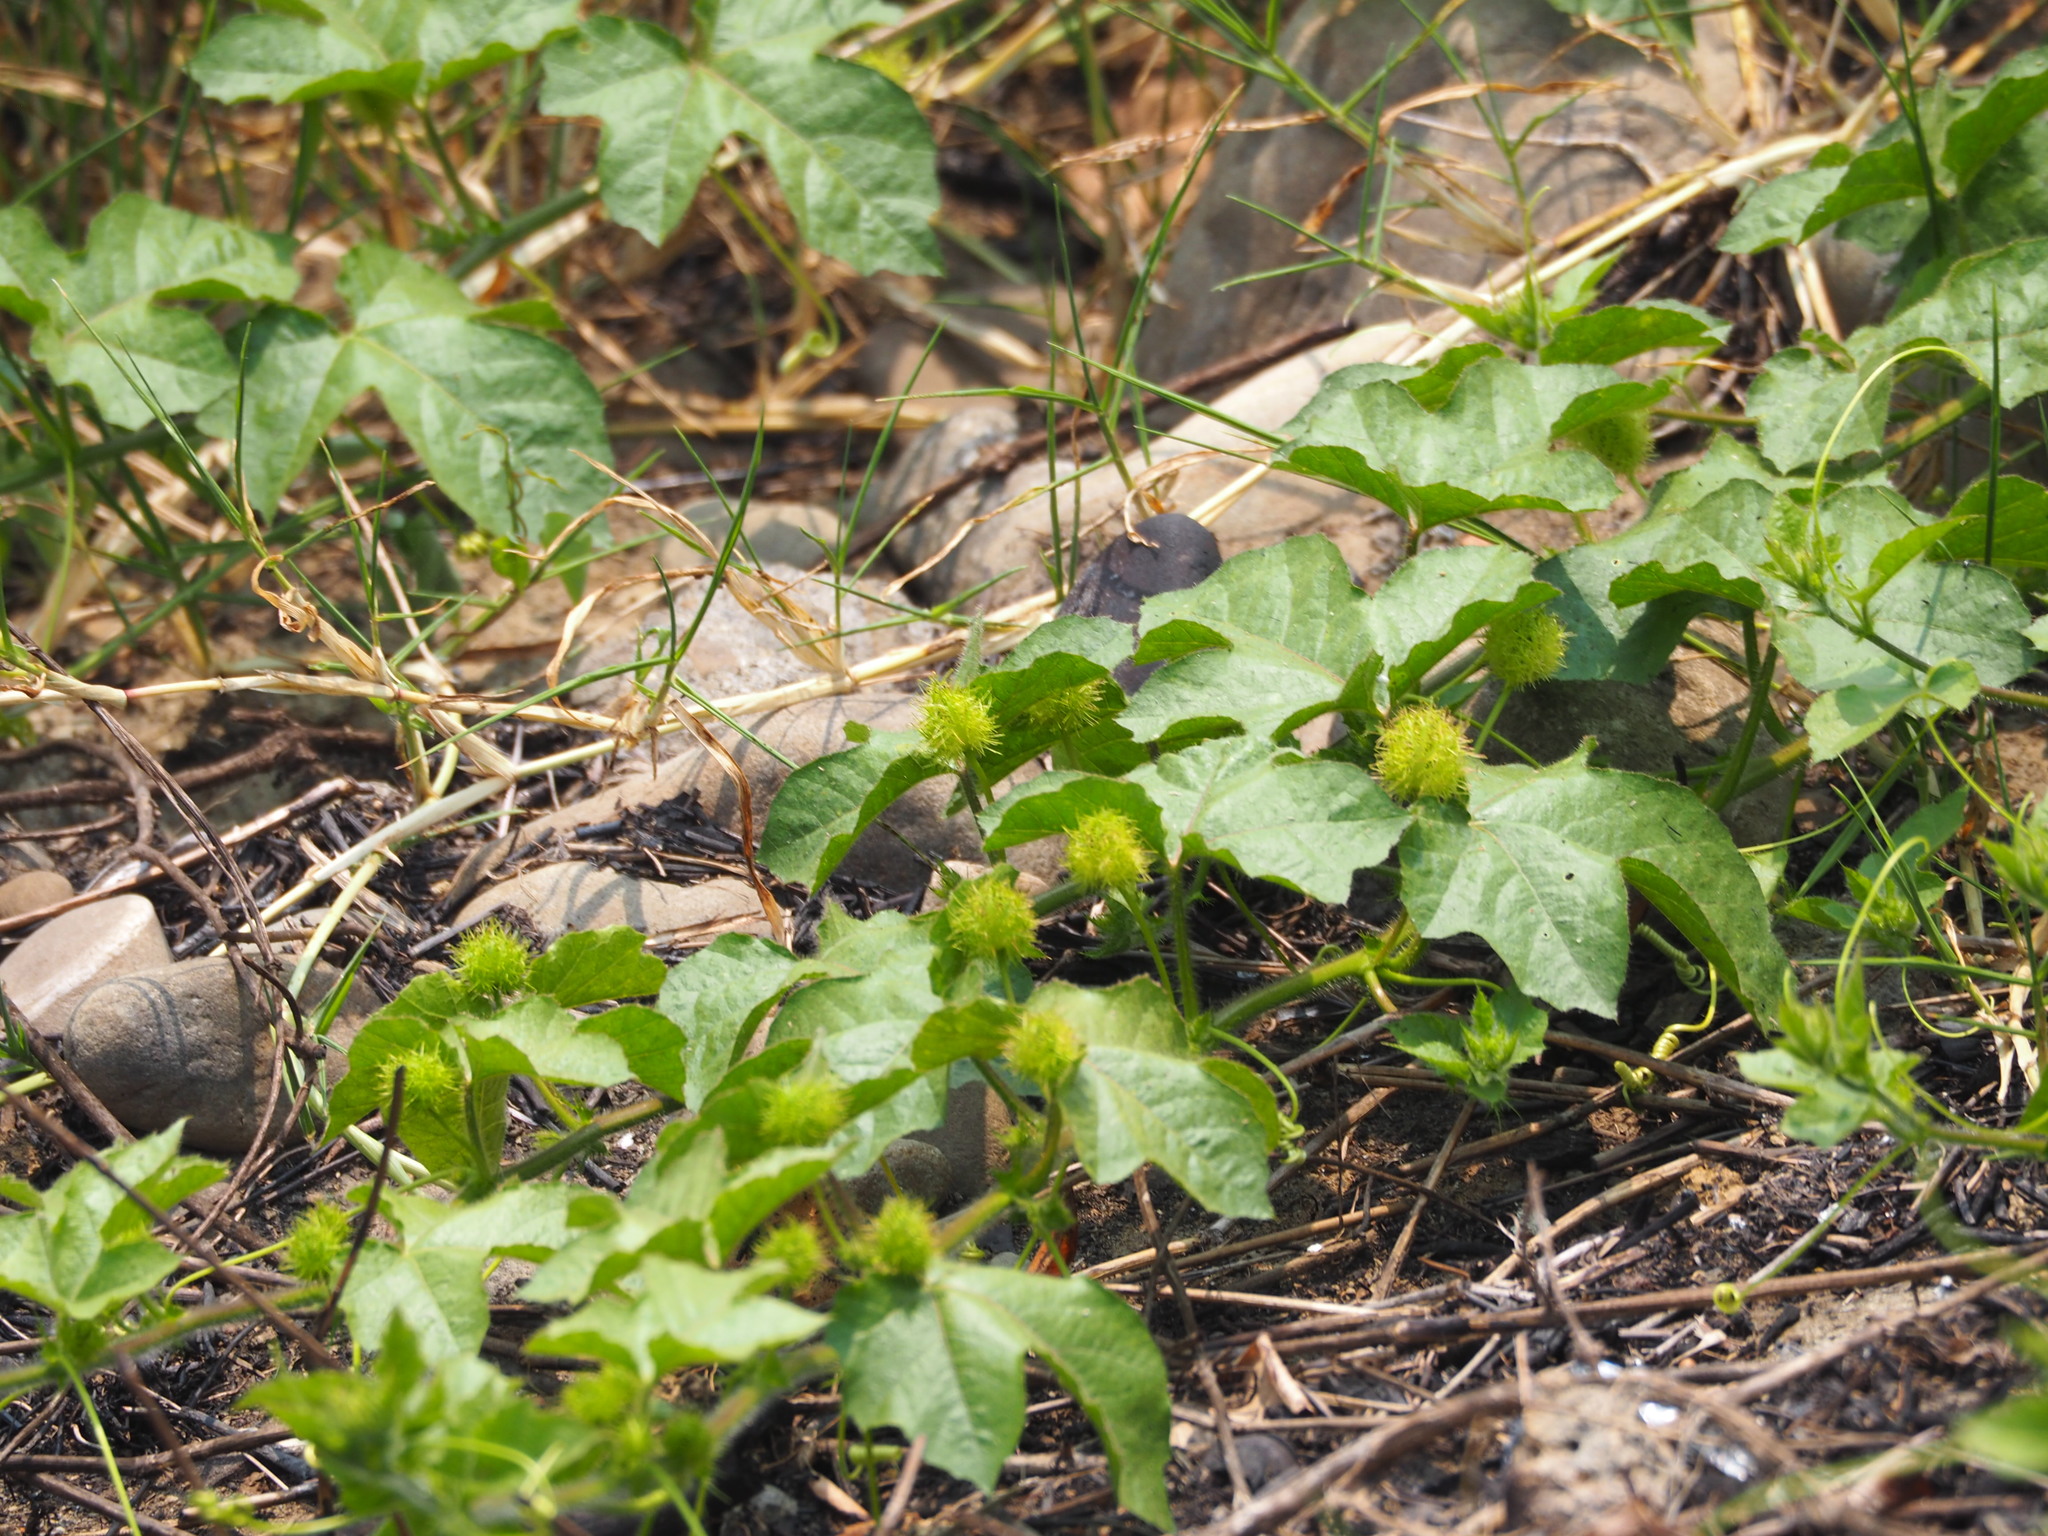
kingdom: Plantae
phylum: Tracheophyta
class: Magnoliopsida
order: Malpighiales
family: Passifloraceae
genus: Passiflora
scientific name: Passiflora vesicaria
